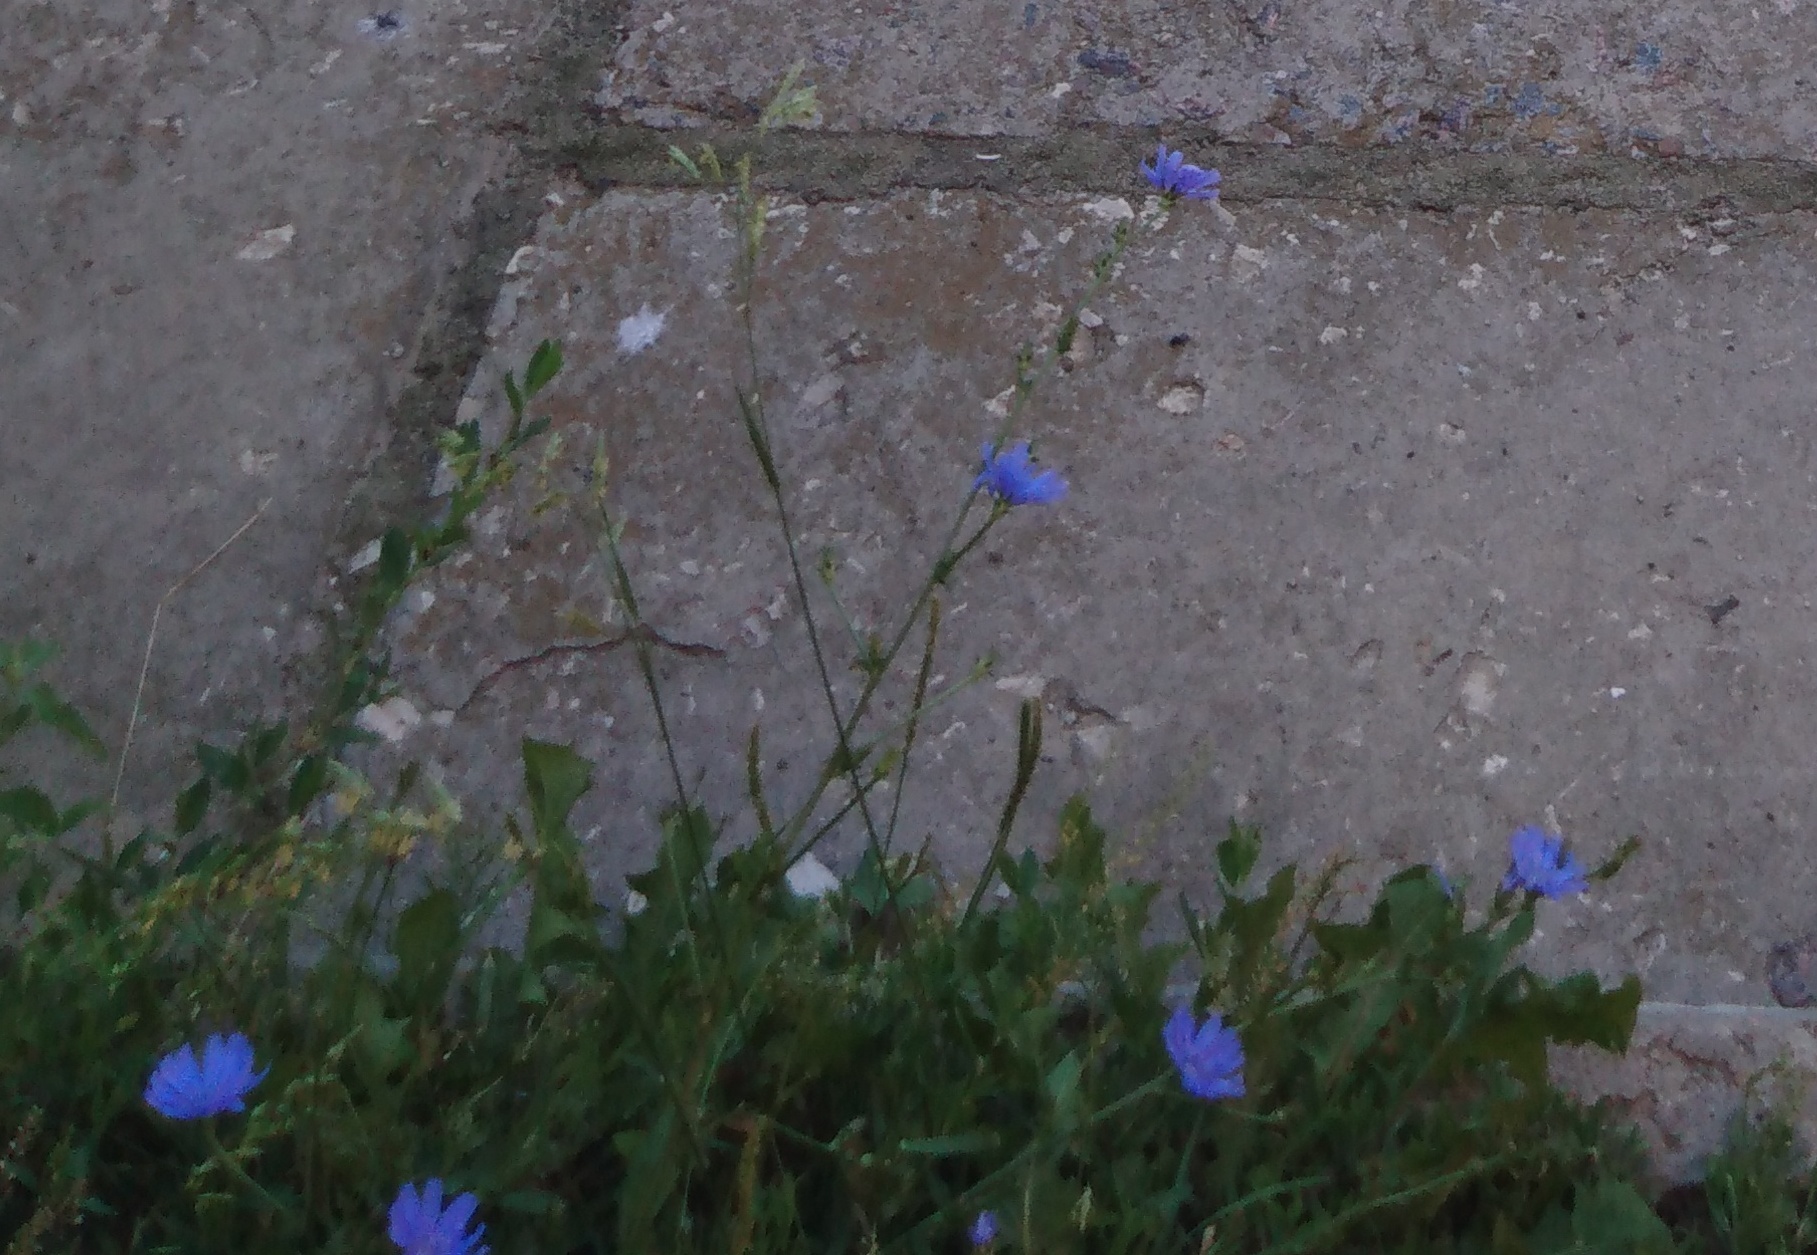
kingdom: Plantae
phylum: Tracheophyta
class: Magnoliopsida
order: Asterales
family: Asteraceae
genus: Cichorium
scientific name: Cichorium intybus
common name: Chicory
